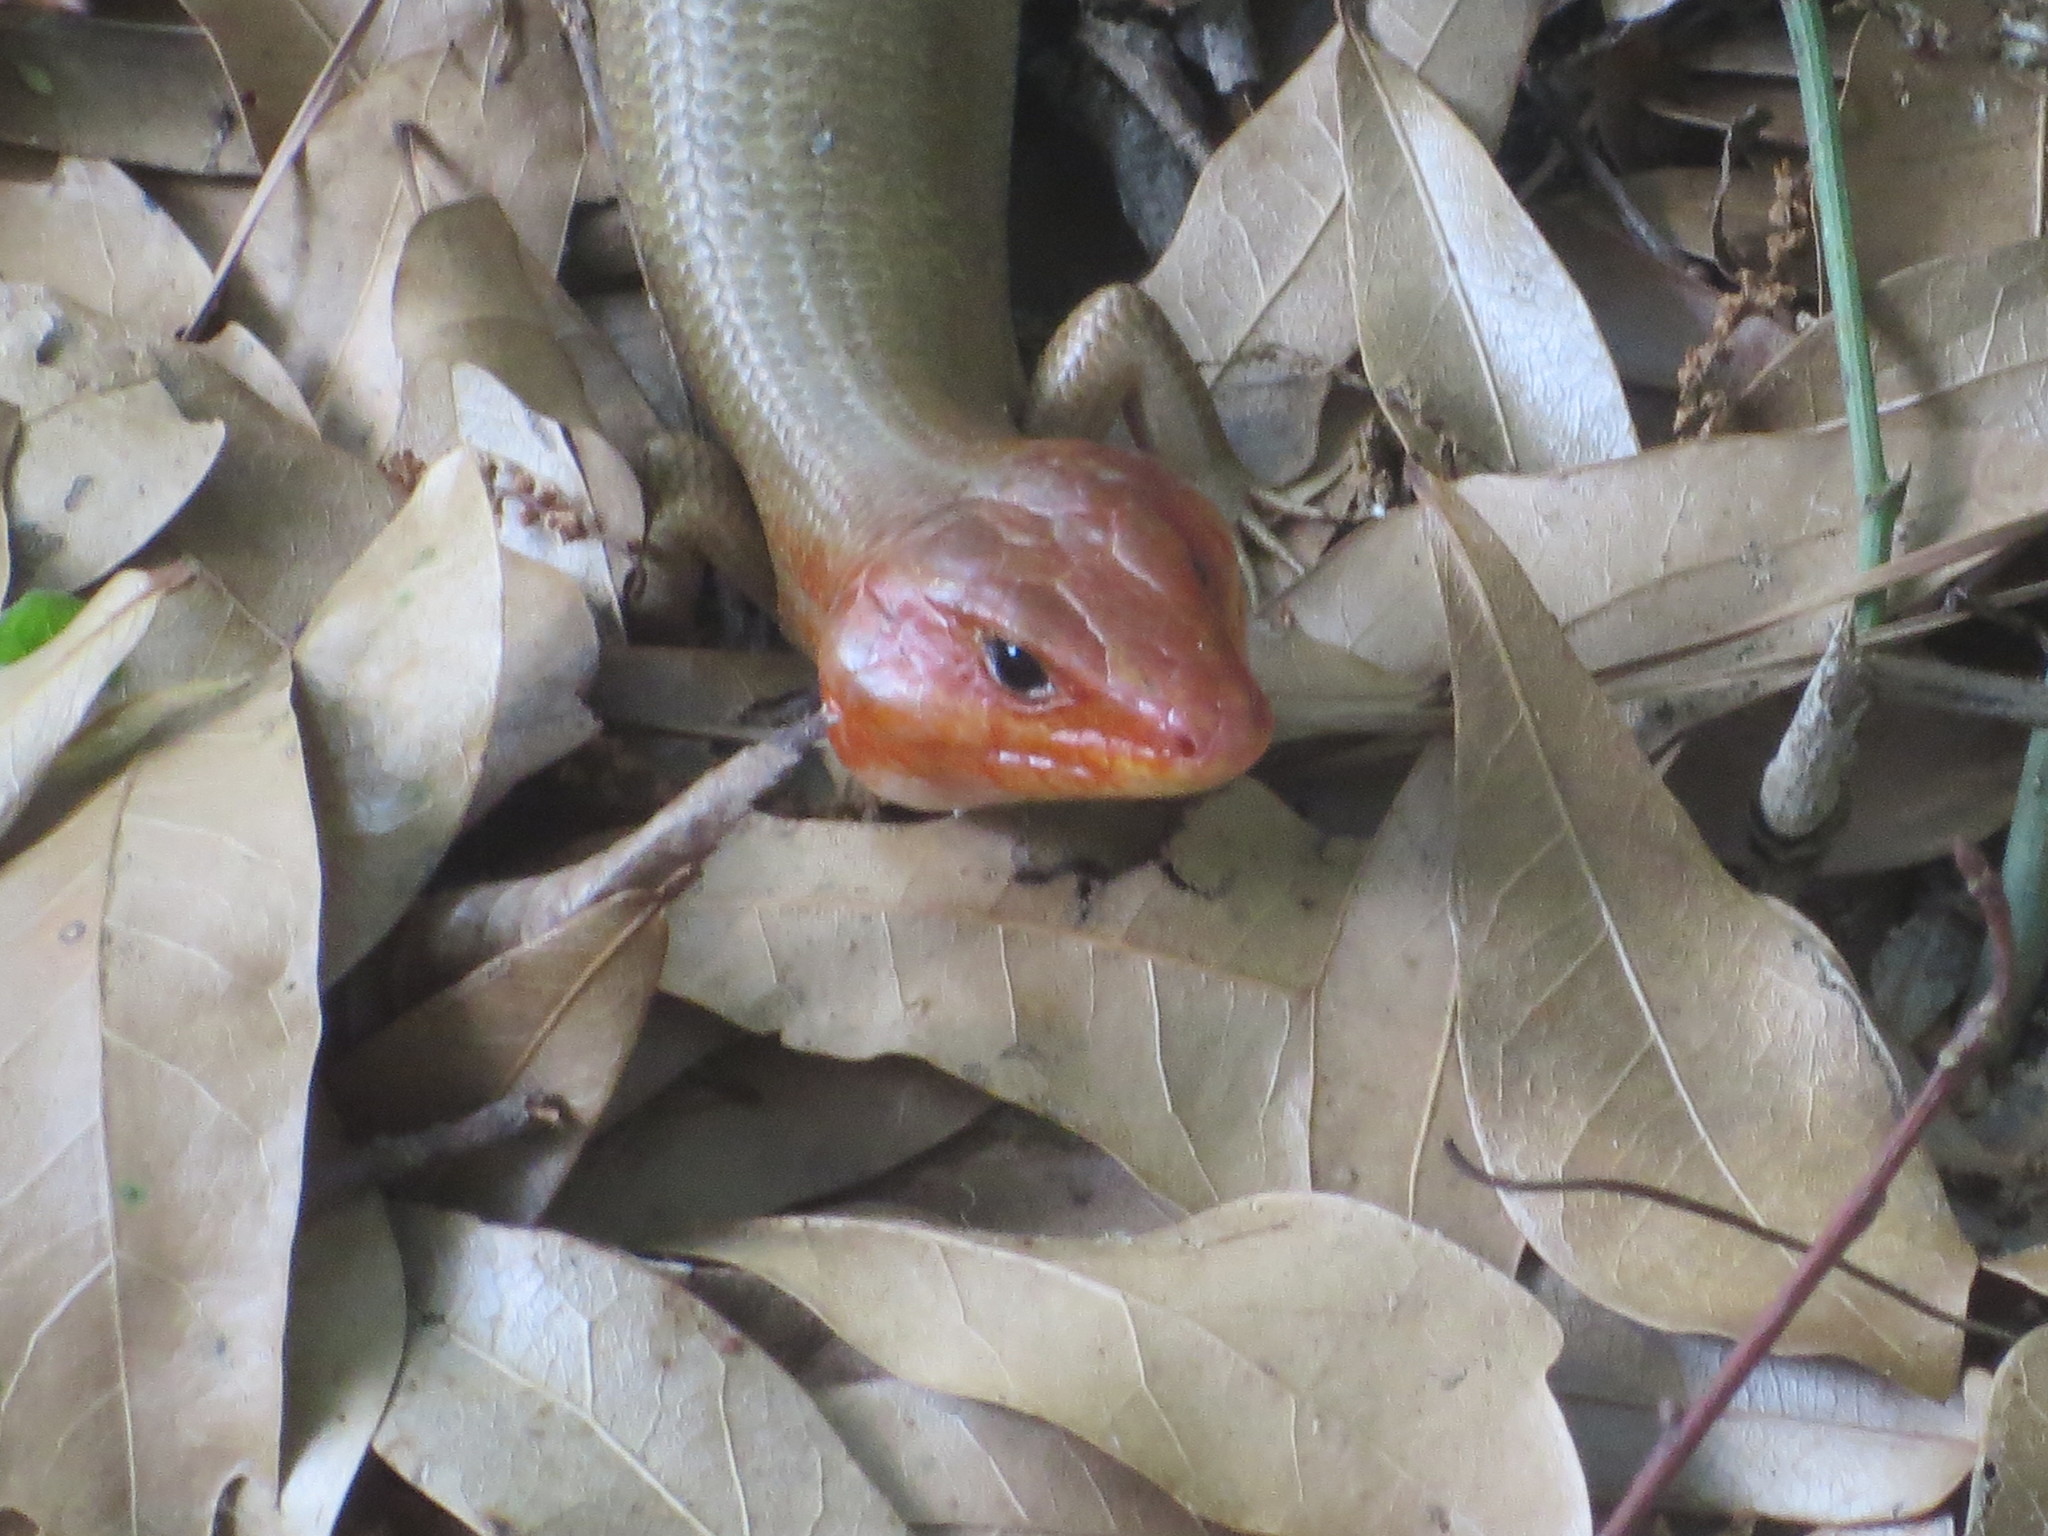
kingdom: Animalia
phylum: Chordata
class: Squamata
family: Scincidae
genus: Plestiodon
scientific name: Plestiodon laticeps
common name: Broadhead skink
